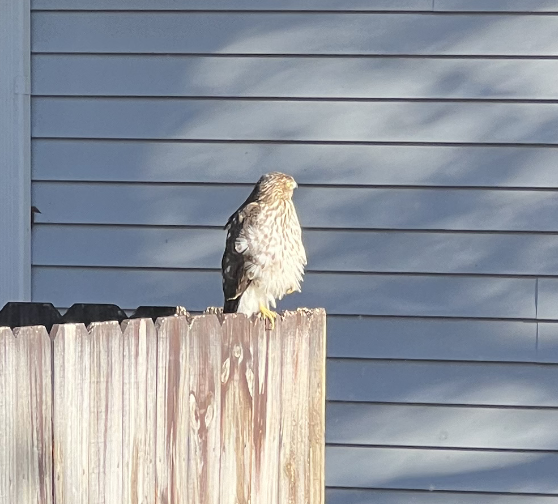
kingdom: Animalia
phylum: Chordata
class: Aves
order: Accipitriformes
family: Accipitridae
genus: Accipiter
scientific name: Accipiter cooperii
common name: Cooper's hawk
